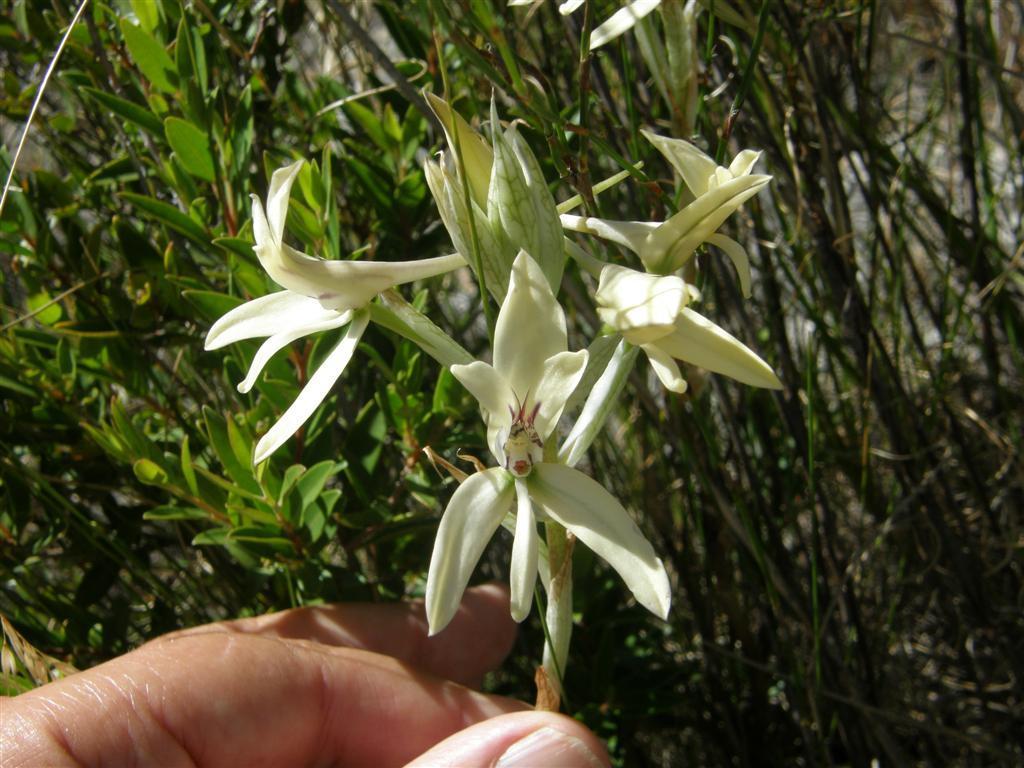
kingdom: Plantae
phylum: Tracheophyta
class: Liliopsida
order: Asparagales
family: Orchidaceae
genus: Disa
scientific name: Disa harveyana
